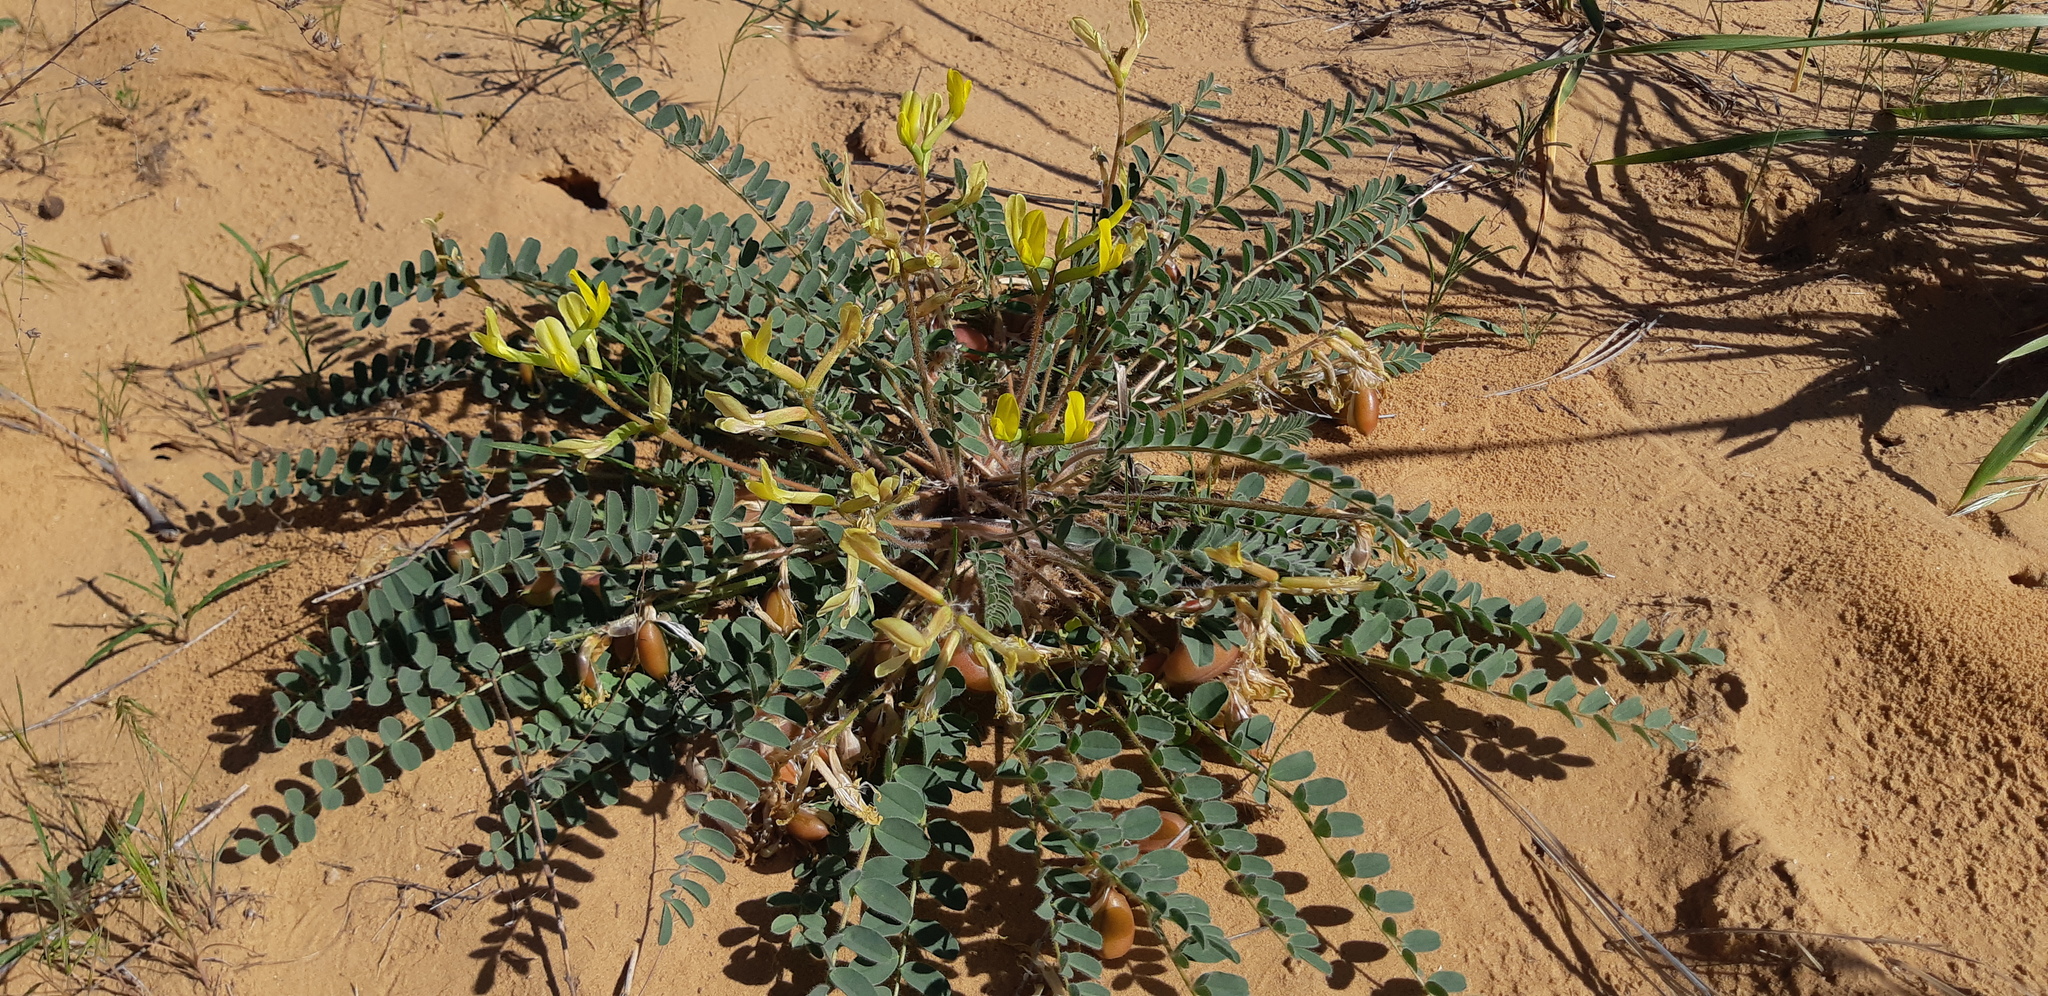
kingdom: Plantae
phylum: Tracheophyta
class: Magnoliopsida
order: Fabales
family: Fabaceae
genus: Astragalus
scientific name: Astragalus longipetalus
